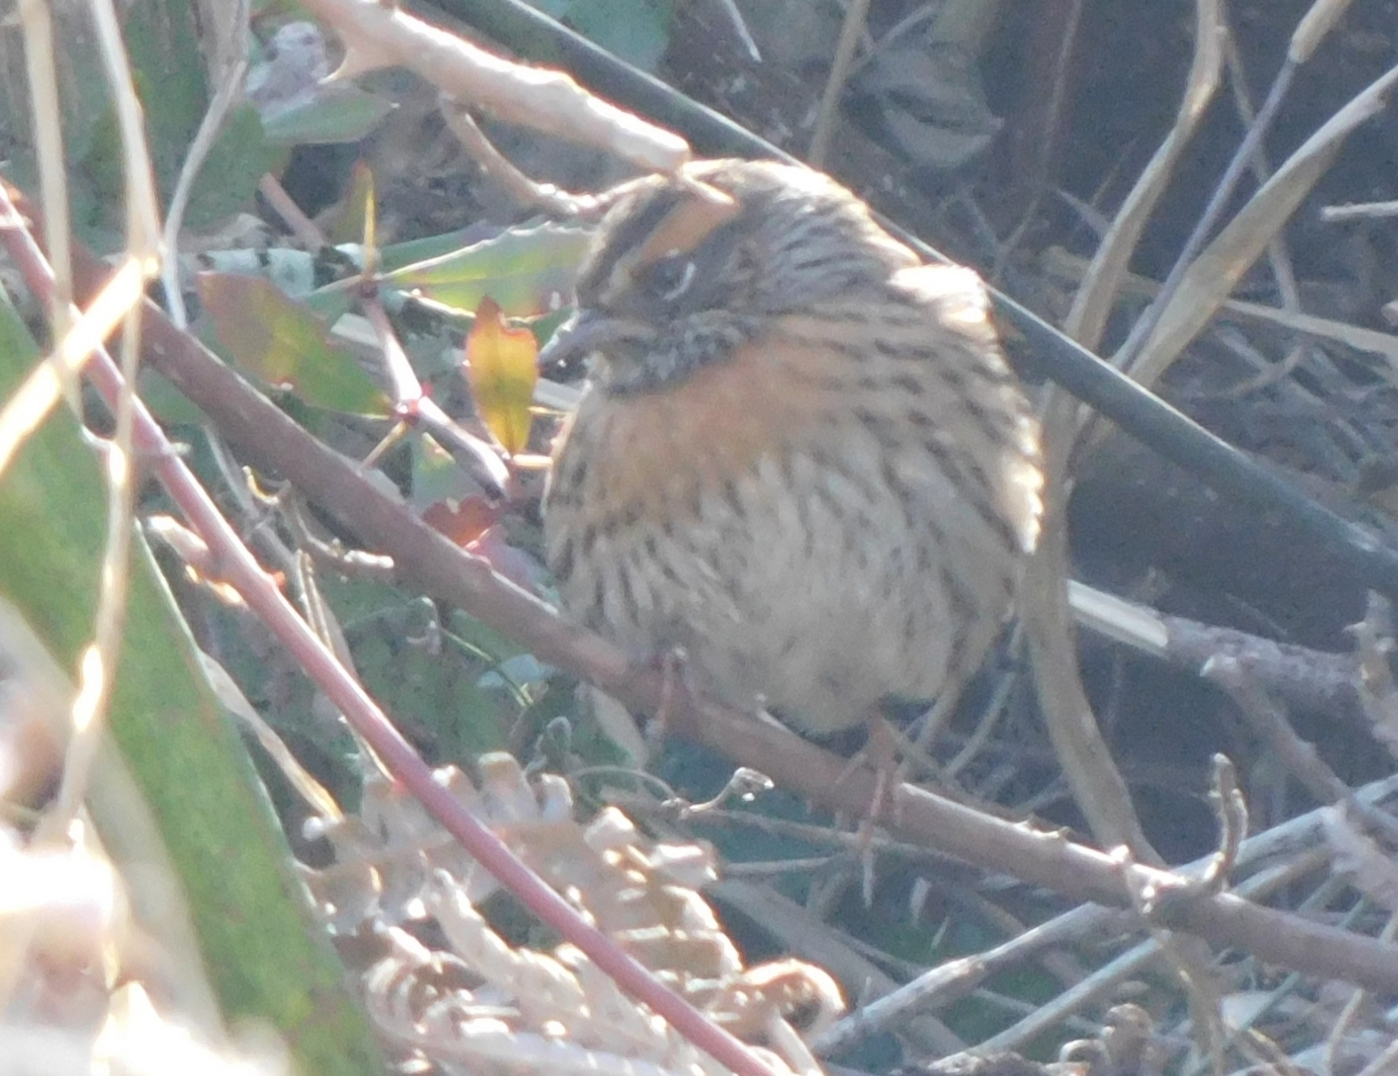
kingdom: Animalia
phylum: Chordata
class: Aves
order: Passeriformes
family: Prunellidae
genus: Prunella
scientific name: Prunella strophiata
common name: Rufous-breasted accentor
